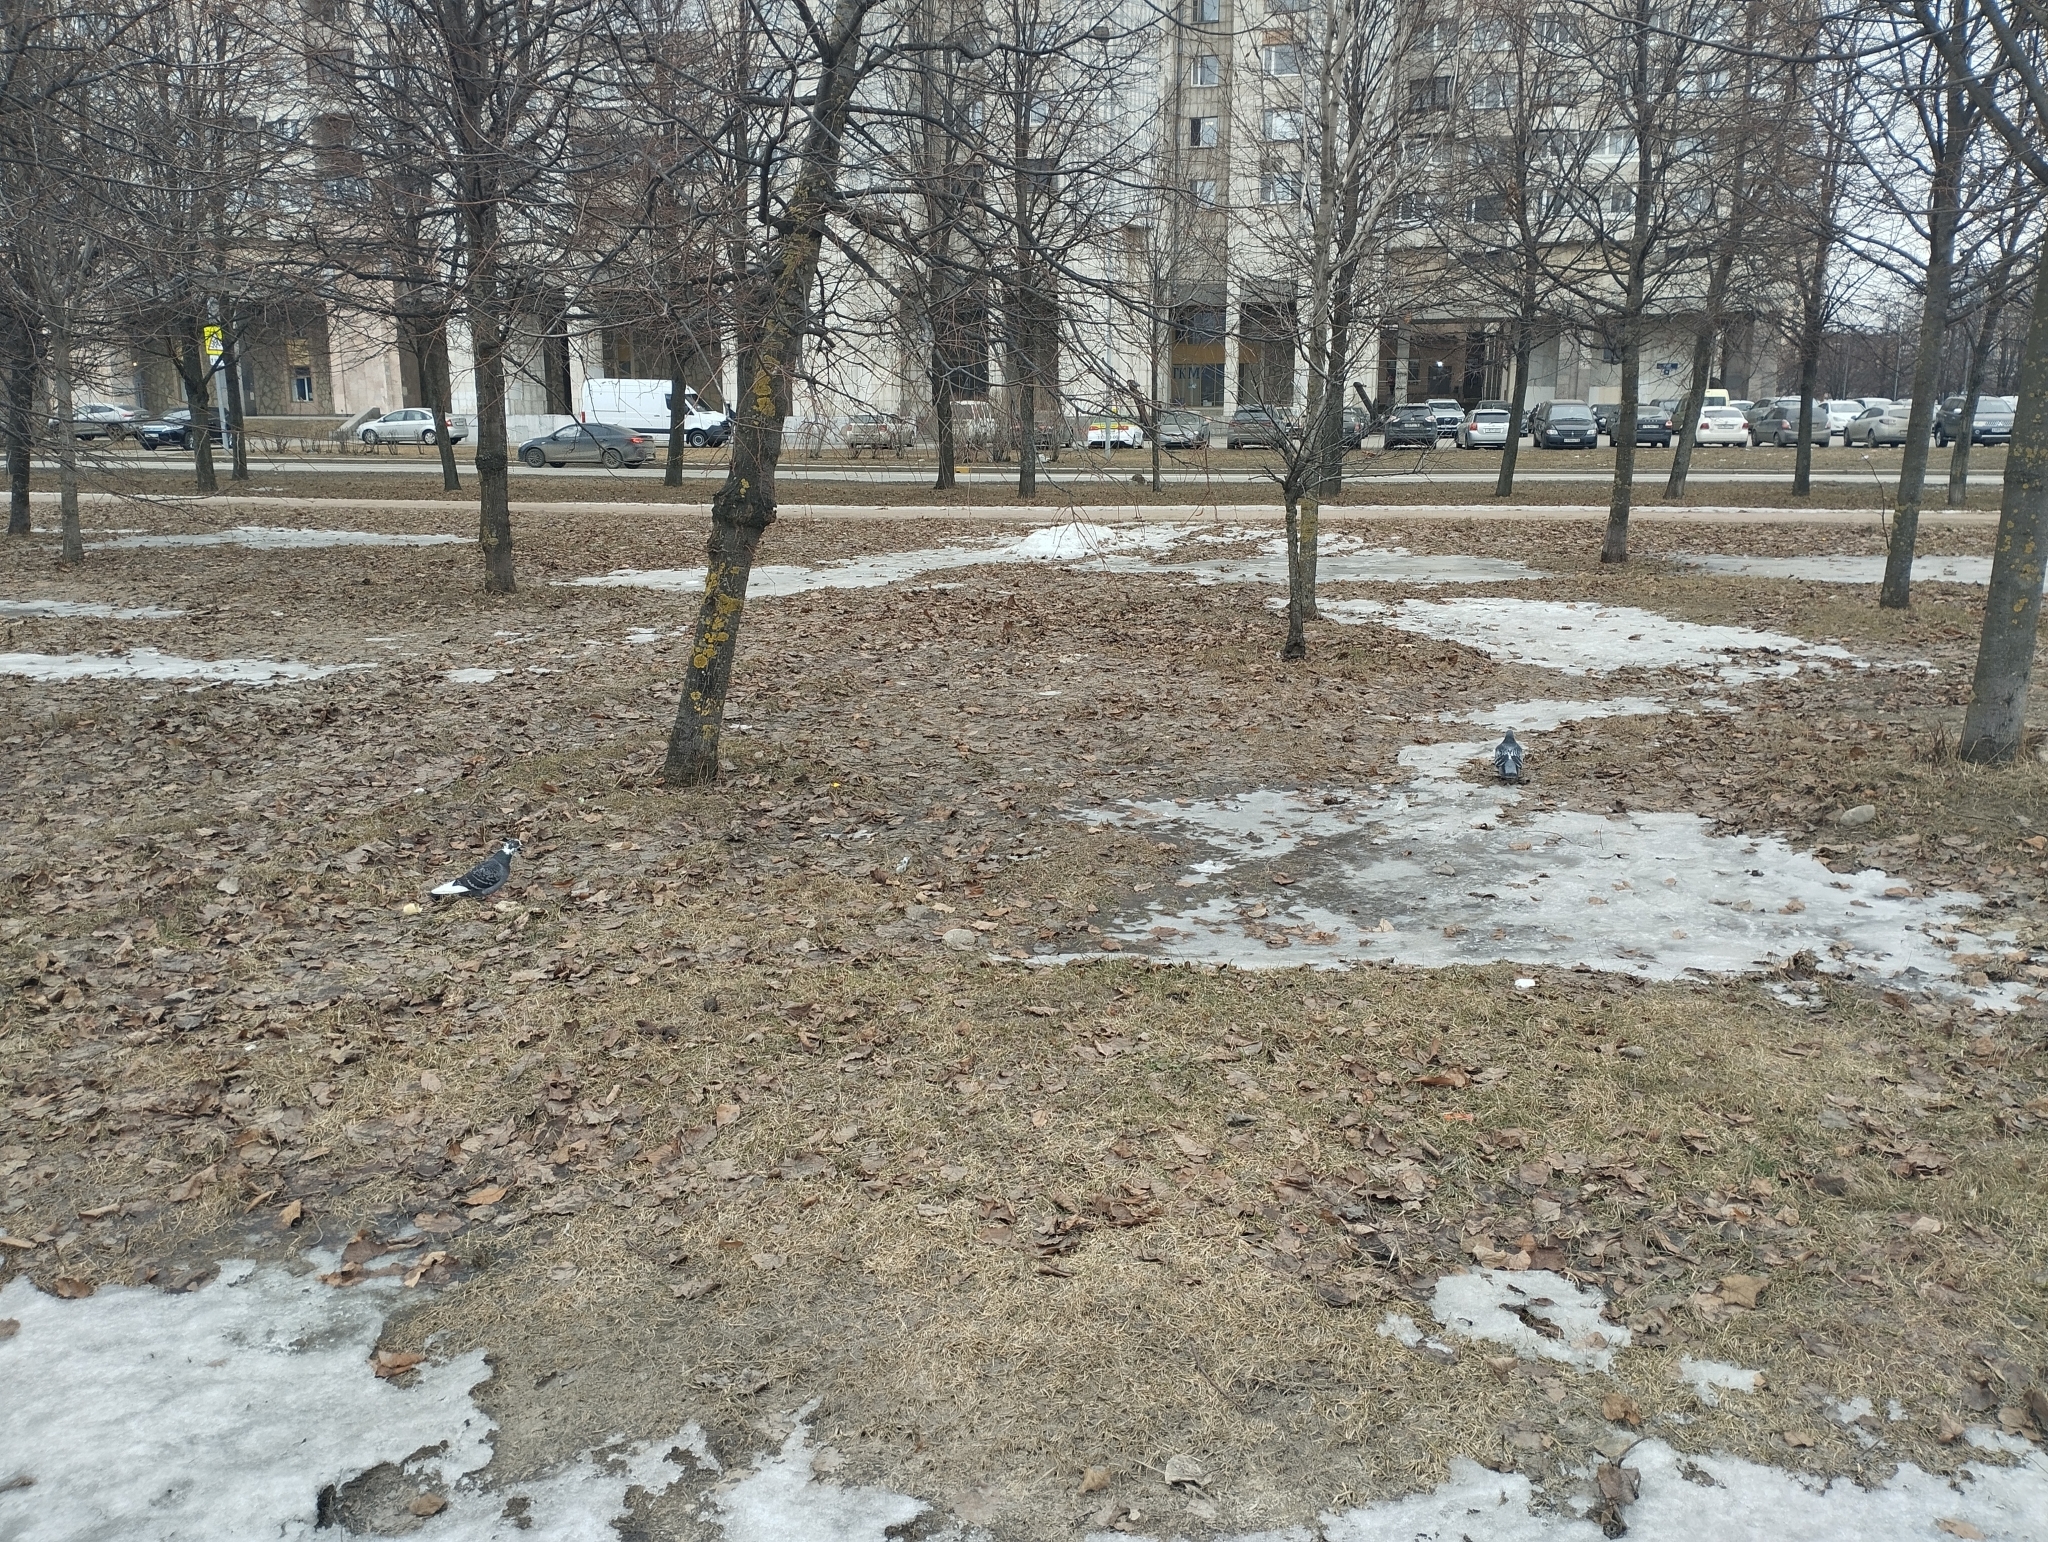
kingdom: Animalia
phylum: Chordata
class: Aves
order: Columbiformes
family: Columbidae
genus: Columba
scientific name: Columba livia
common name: Rock pigeon
